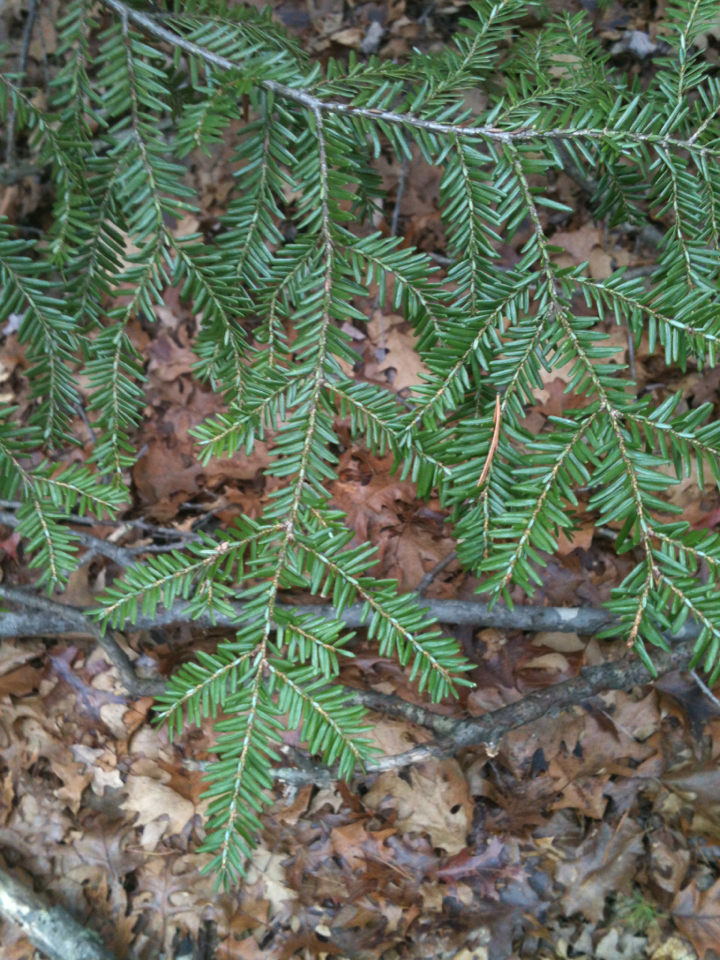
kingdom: Plantae
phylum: Tracheophyta
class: Pinopsida
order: Pinales
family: Pinaceae
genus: Tsuga
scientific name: Tsuga canadensis
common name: Eastern hemlock
